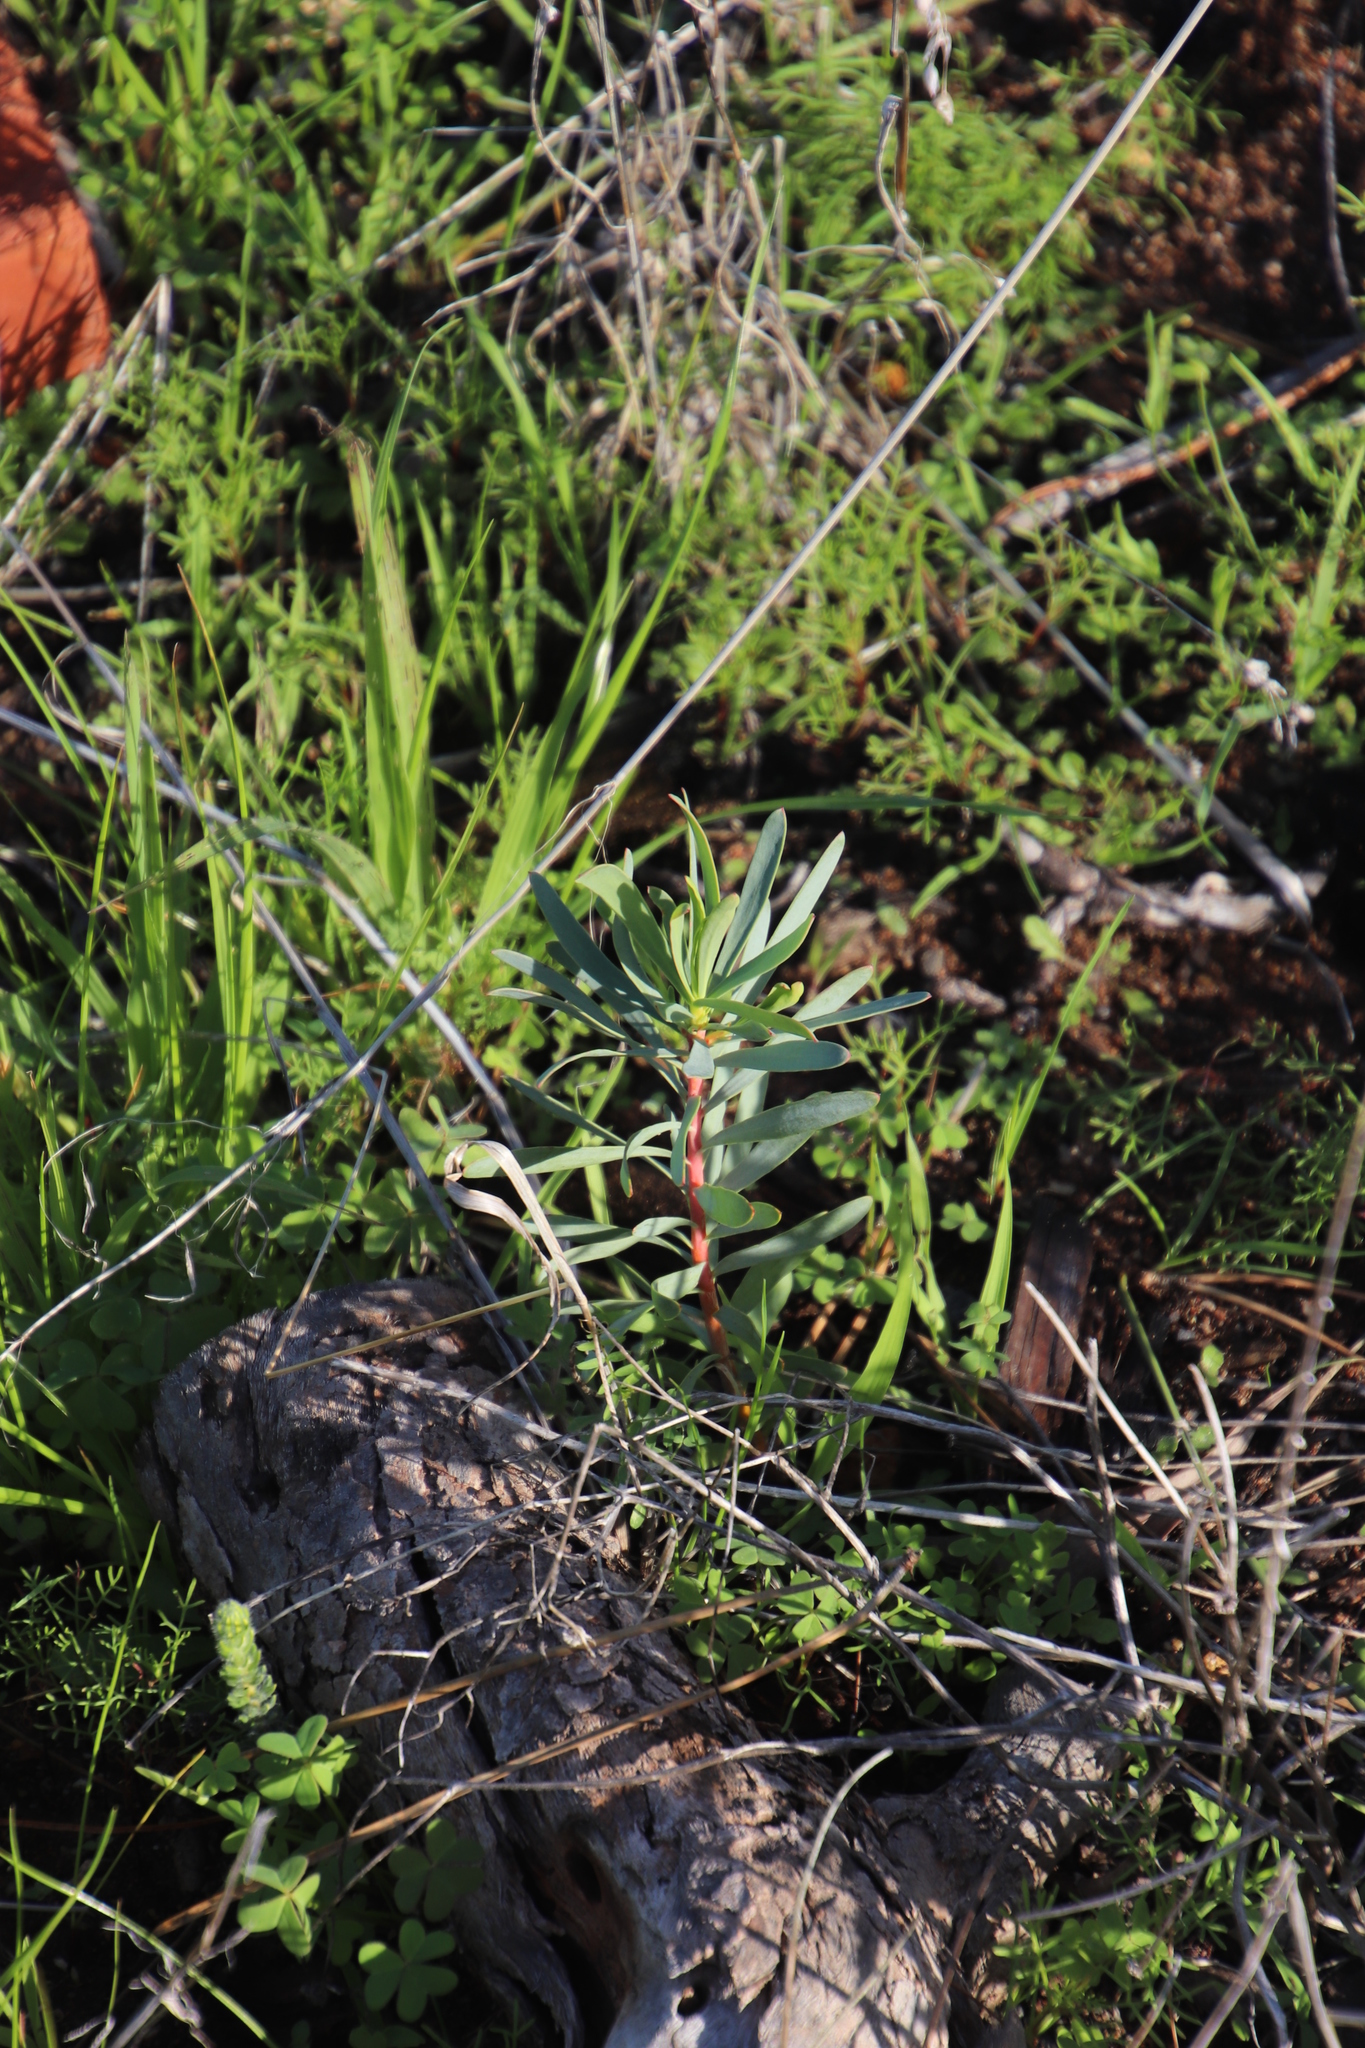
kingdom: Plantae
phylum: Tracheophyta
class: Magnoliopsida
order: Proteales
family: Proteaceae
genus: Protea
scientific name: Protea repens
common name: Sugarbush
